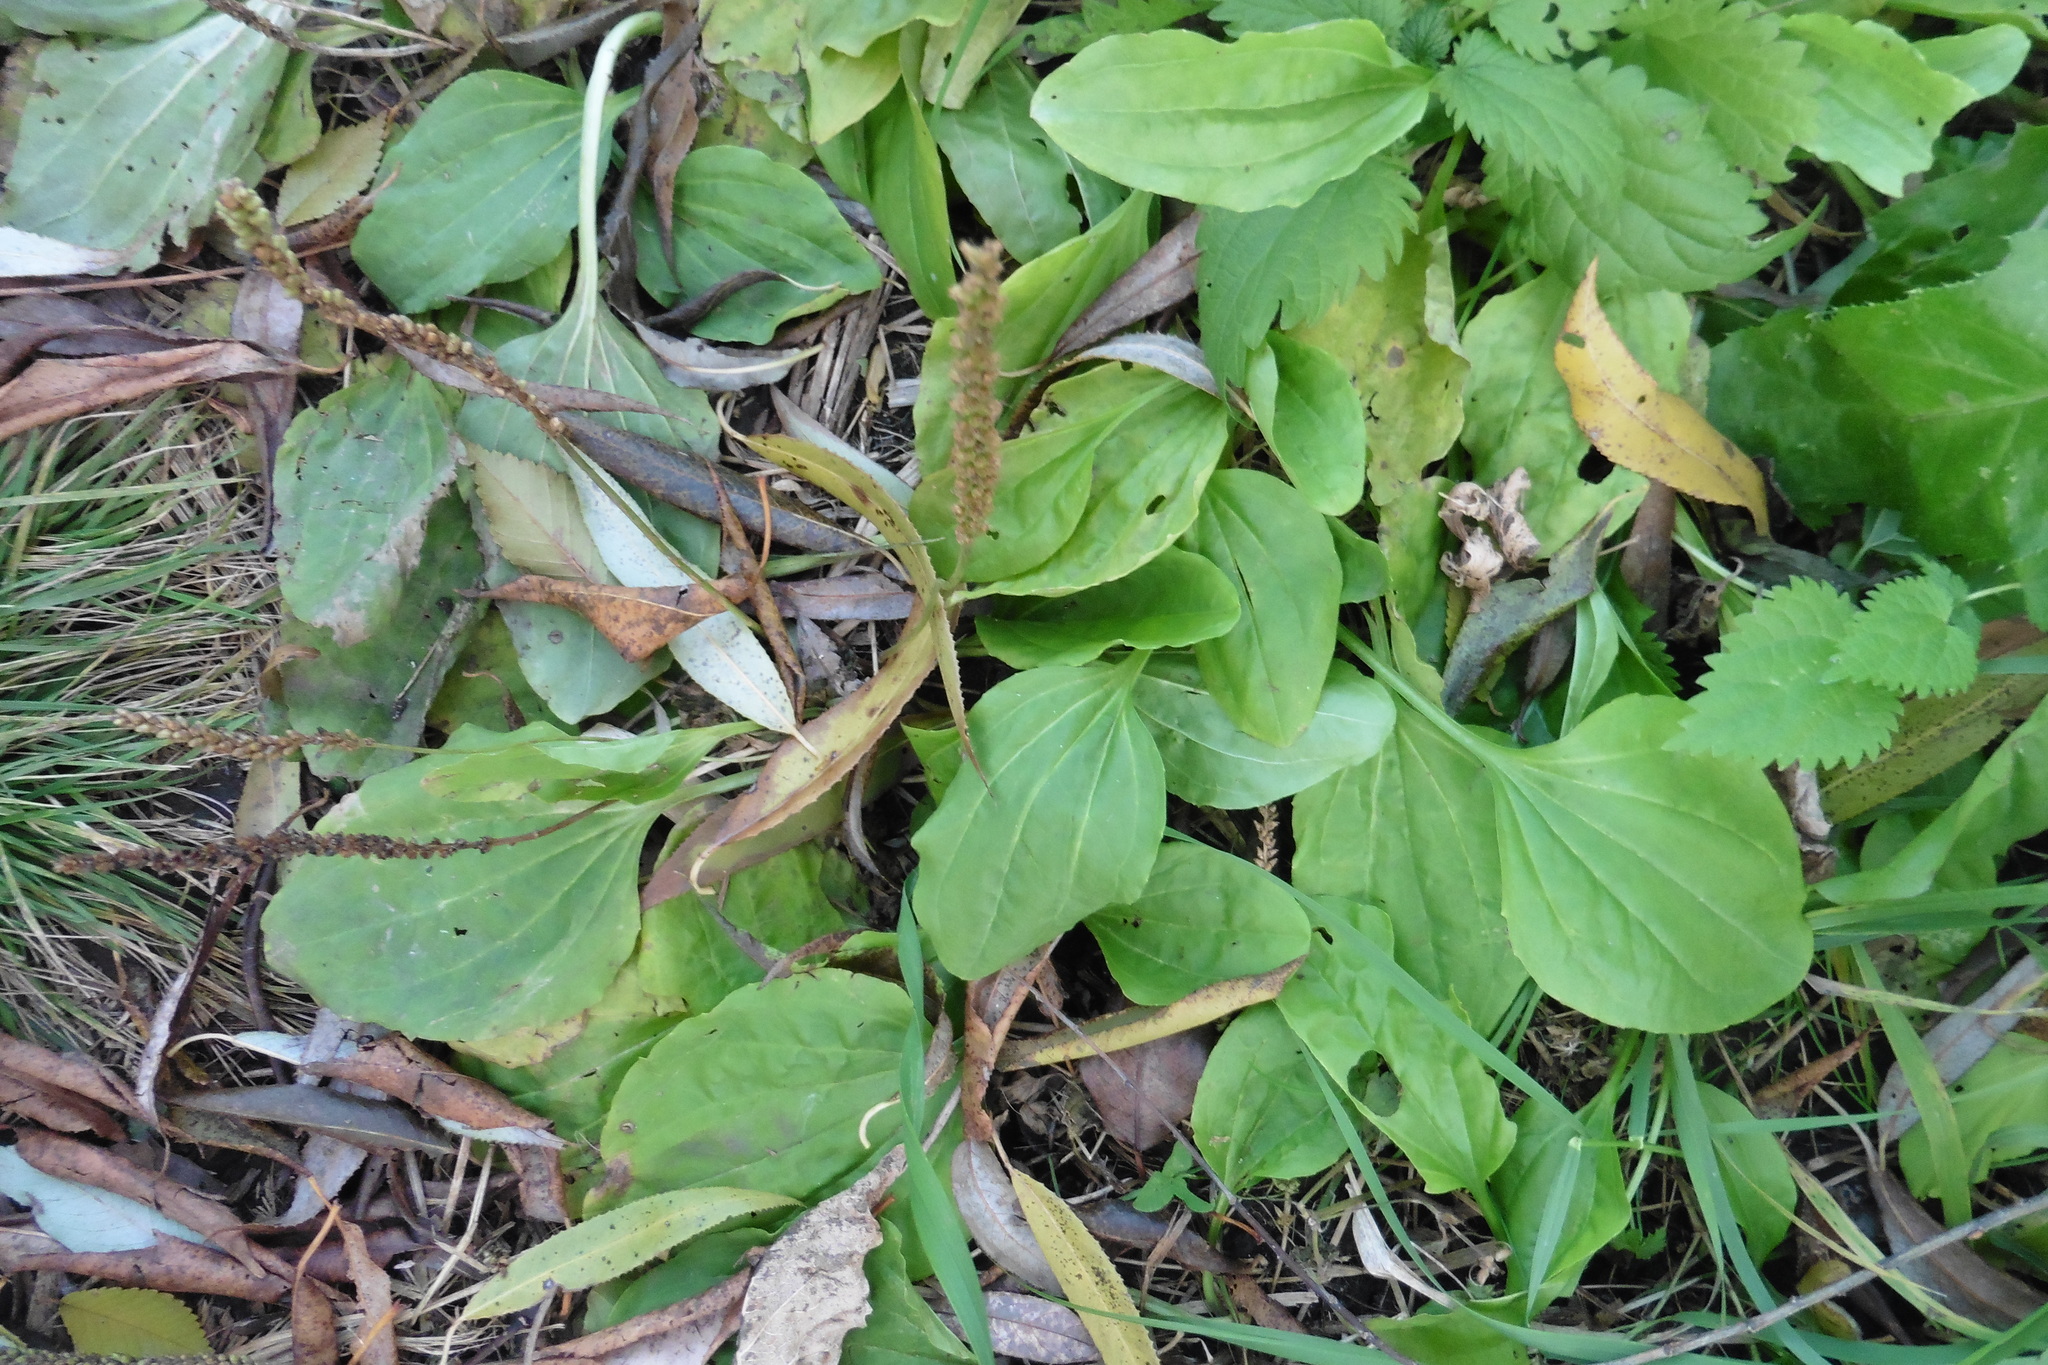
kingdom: Plantae
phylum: Tracheophyta
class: Magnoliopsida
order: Lamiales
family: Plantaginaceae
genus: Plantago
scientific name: Plantago major
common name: Common plantain
